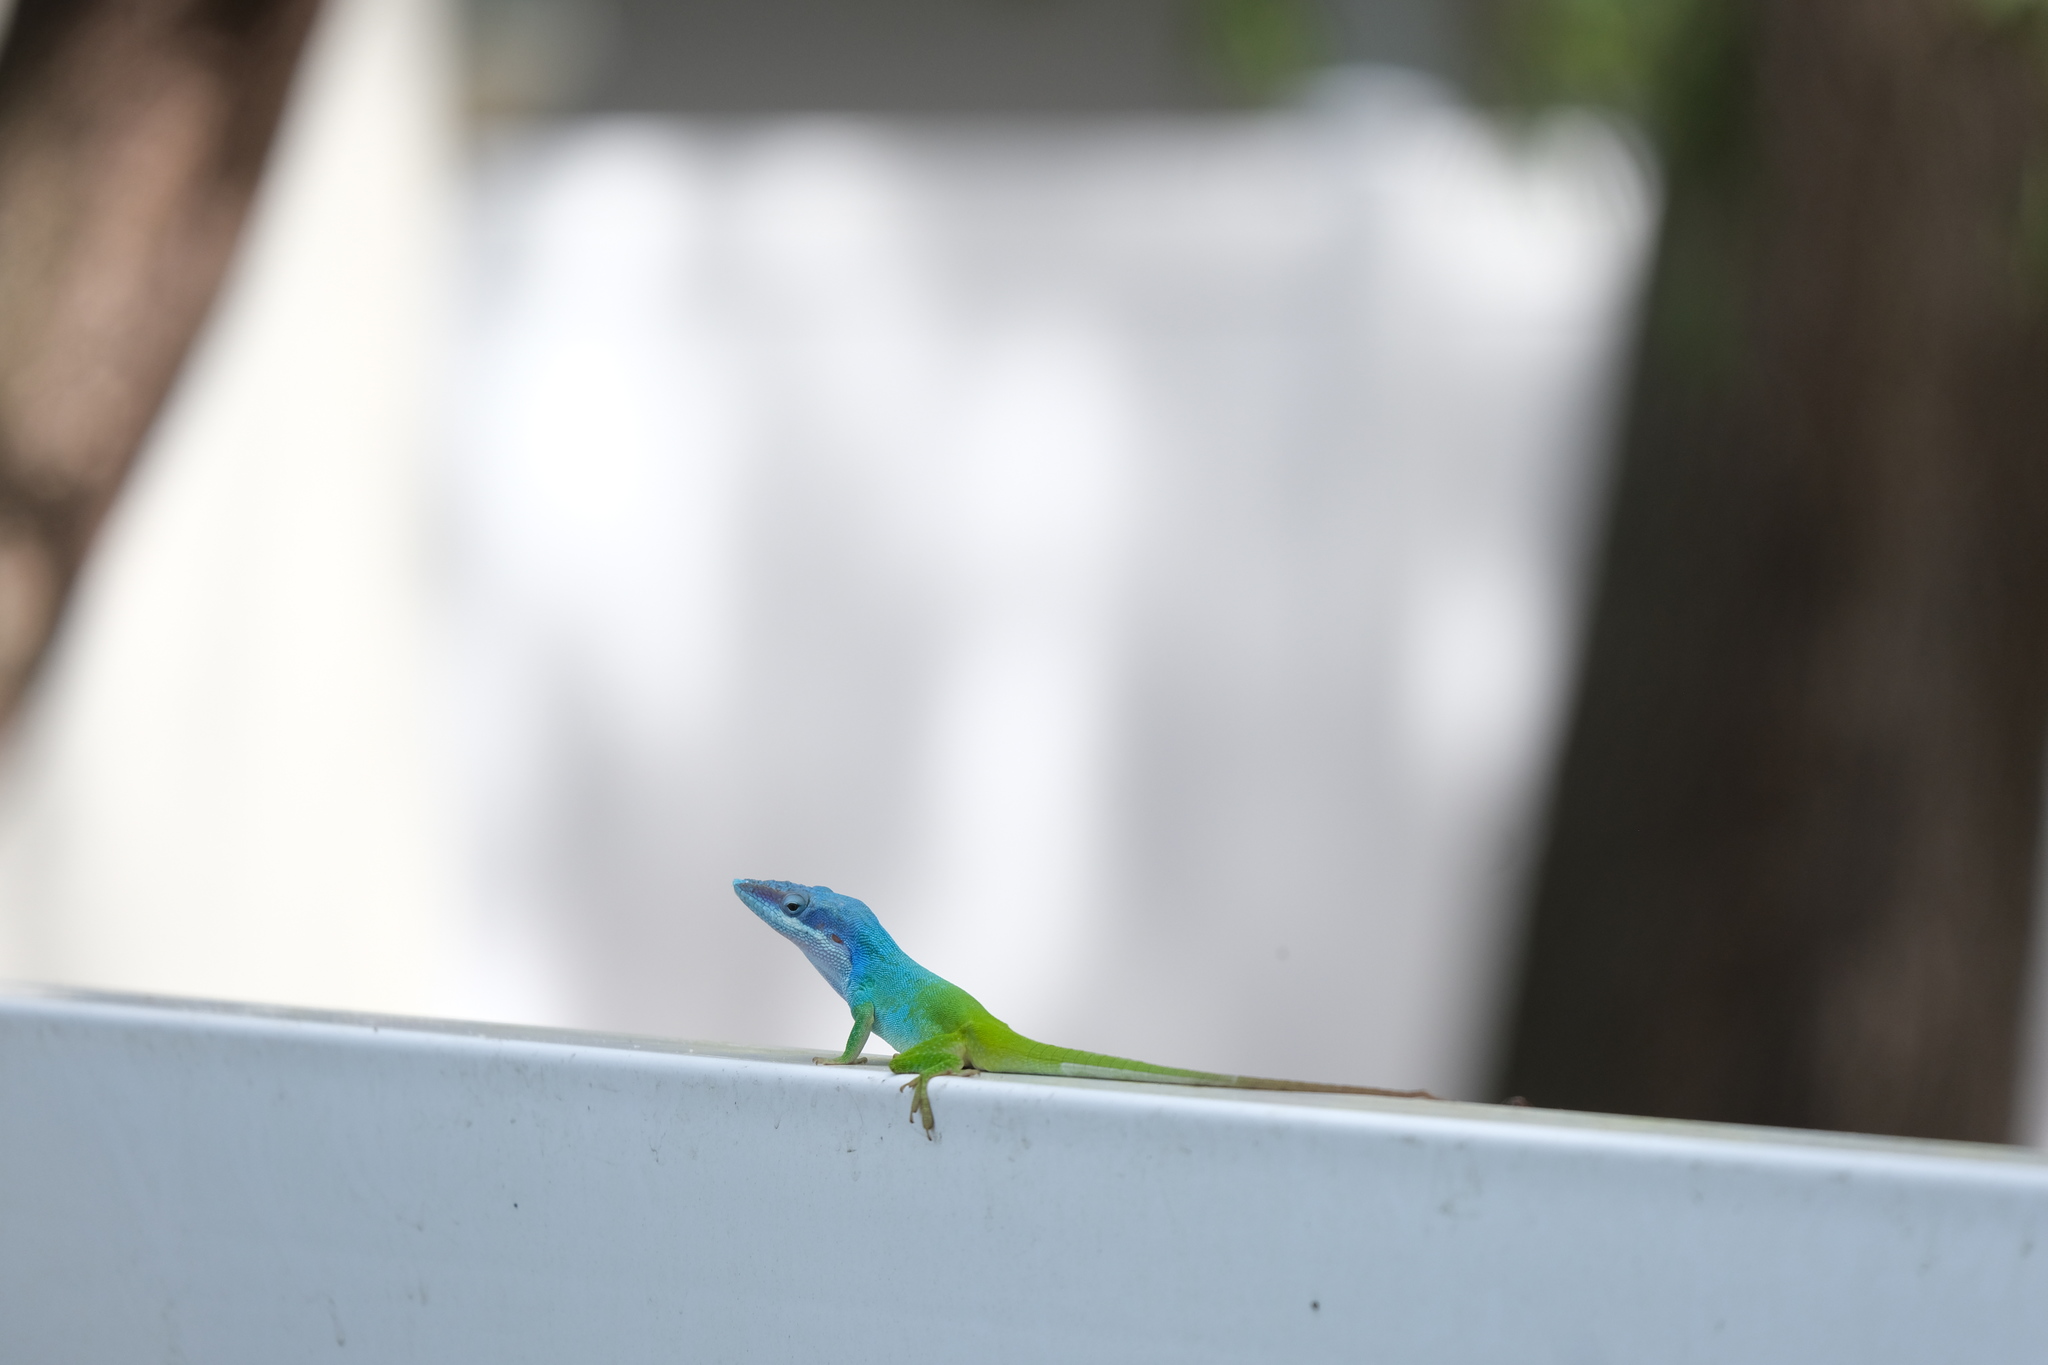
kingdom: Animalia
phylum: Chordata
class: Squamata
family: Dactyloidae
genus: Anolis
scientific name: Anolis allisoni
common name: Allison's anole
